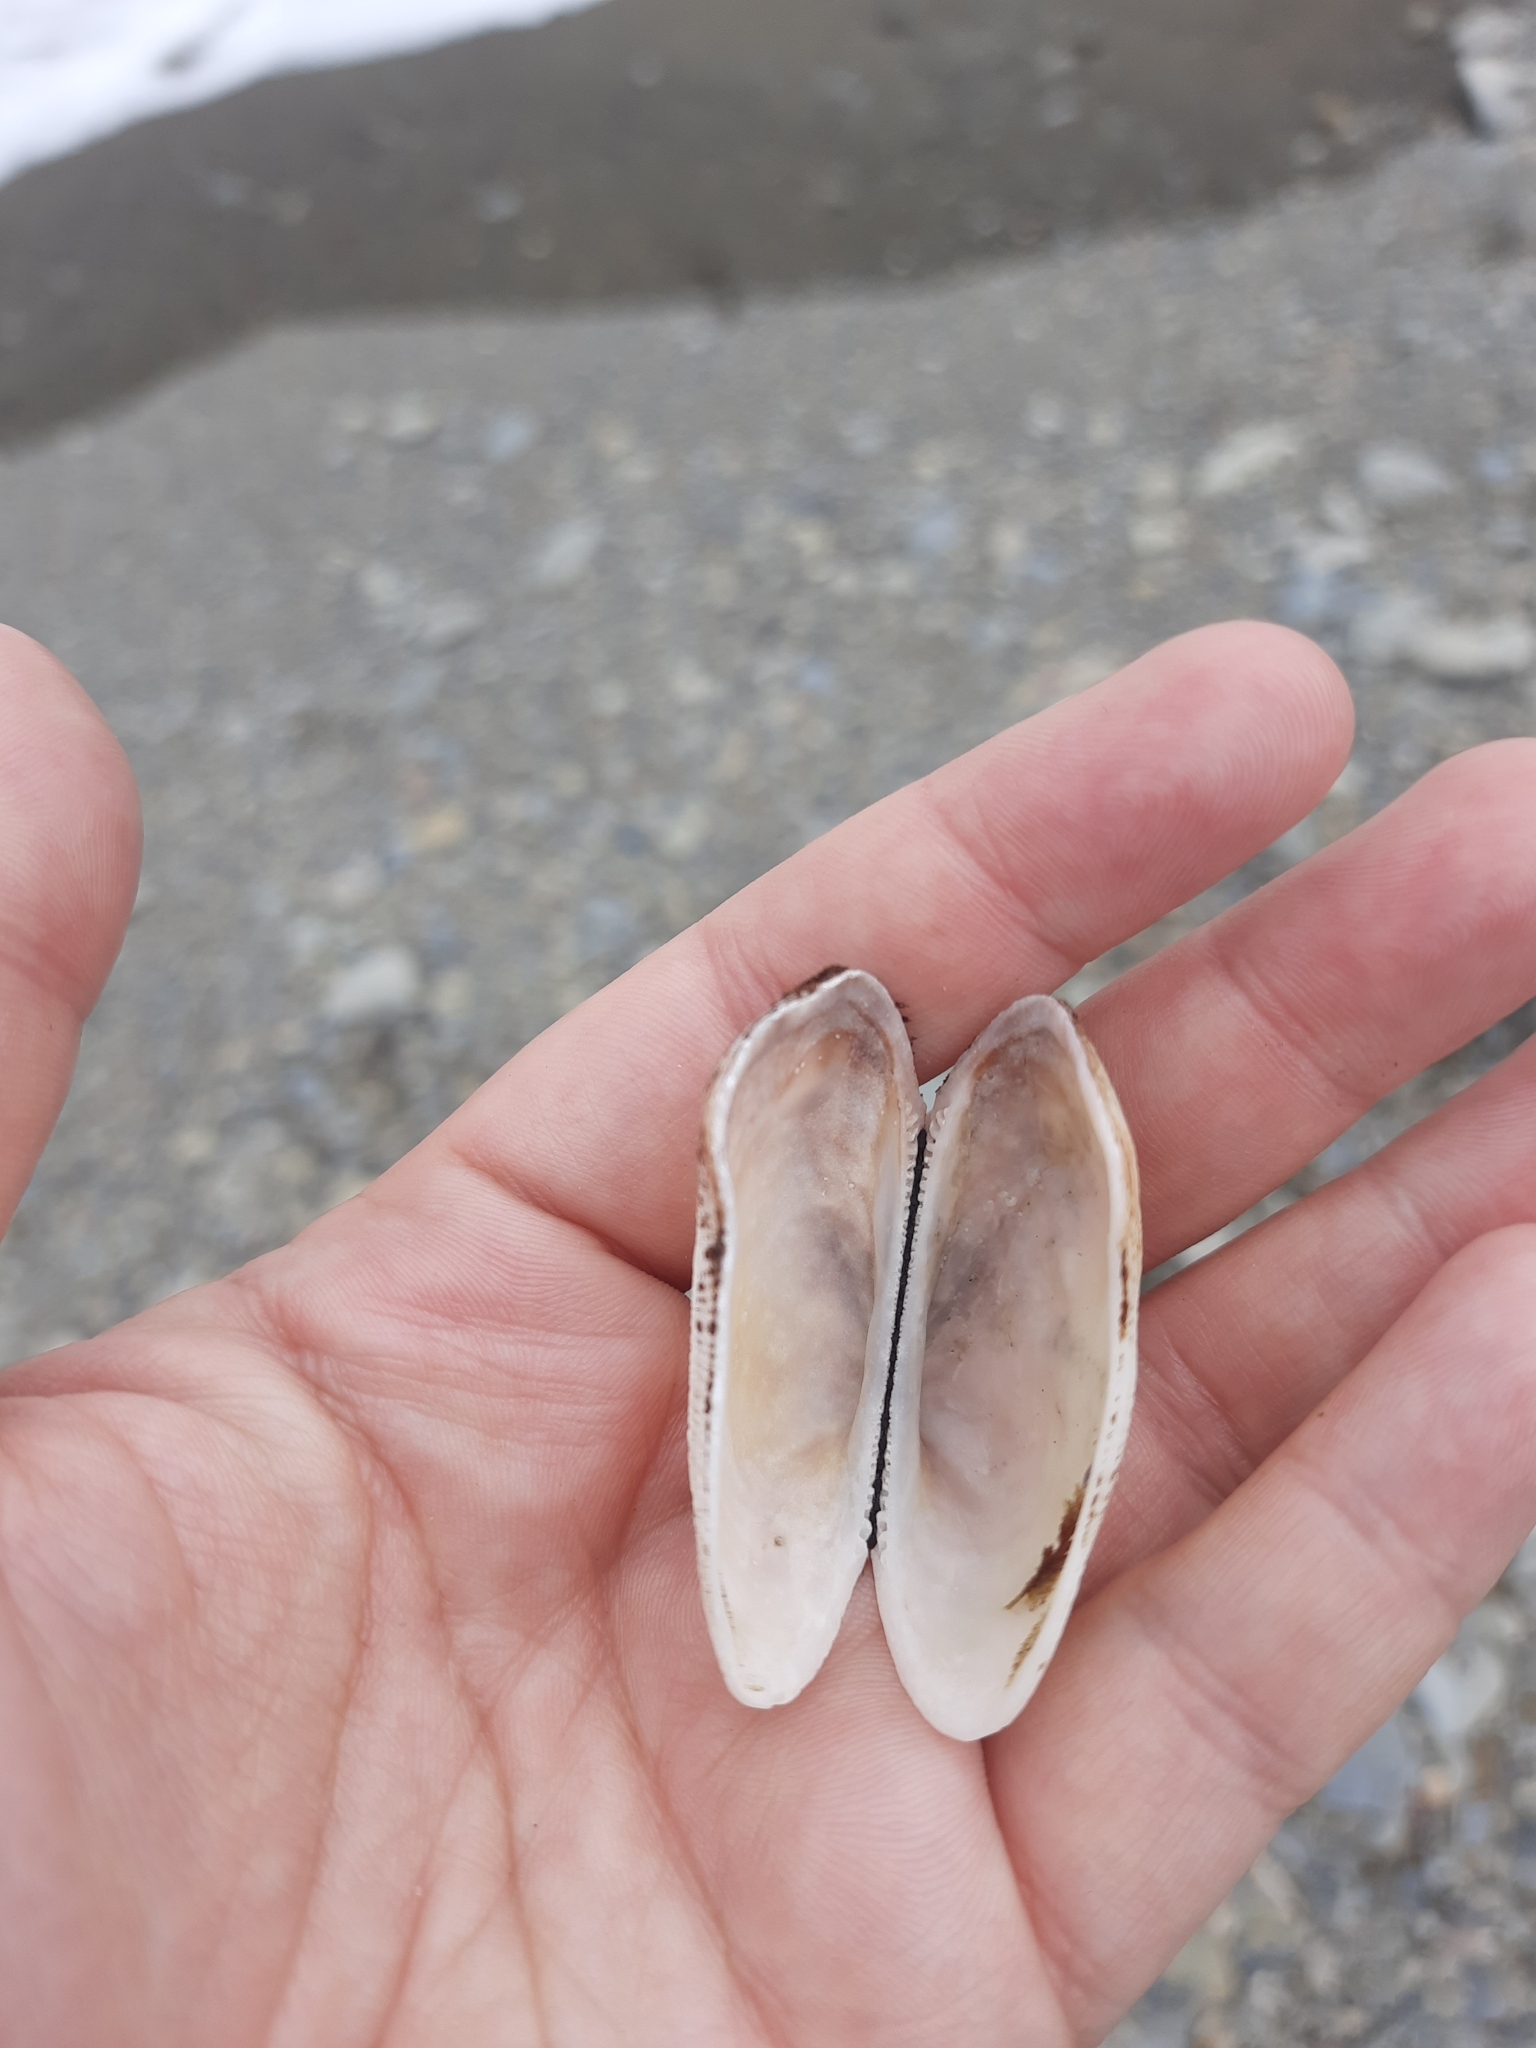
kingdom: Animalia
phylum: Mollusca
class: Bivalvia
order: Arcida
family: Arcidae
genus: Barbatia
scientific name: Barbatia novaezealandiae
